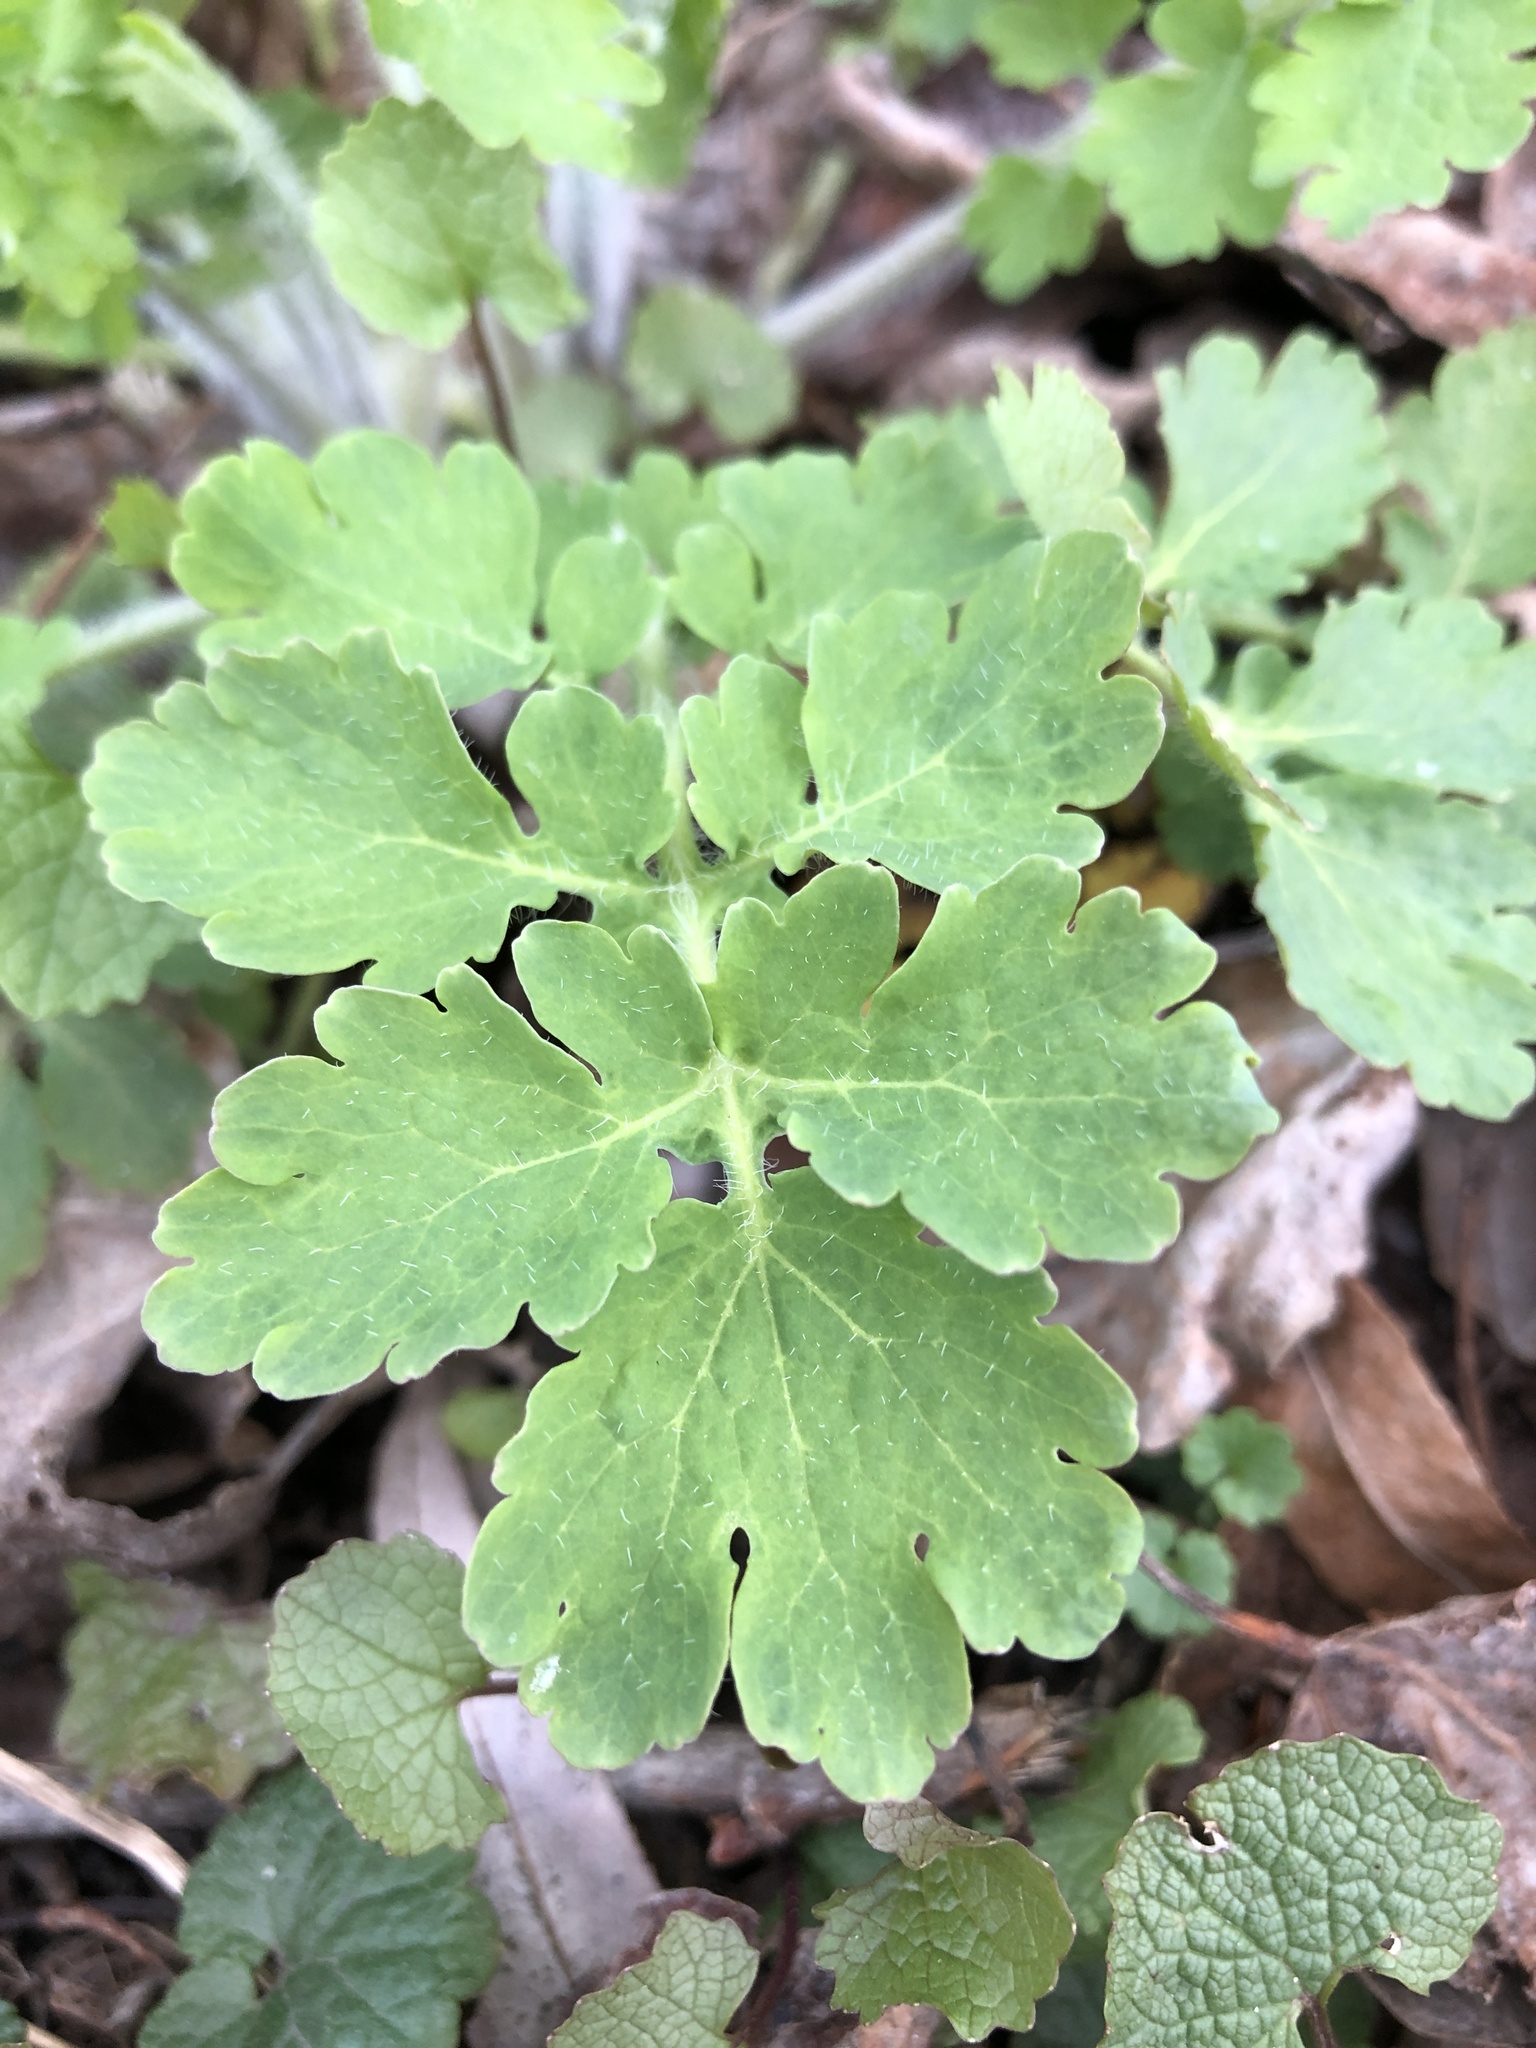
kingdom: Plantae
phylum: Tracheophyta
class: Magnoliopsida
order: Ranunculales
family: Papaveraceae
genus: Chelidonium
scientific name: Chelidonium majus
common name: Greater celandine
